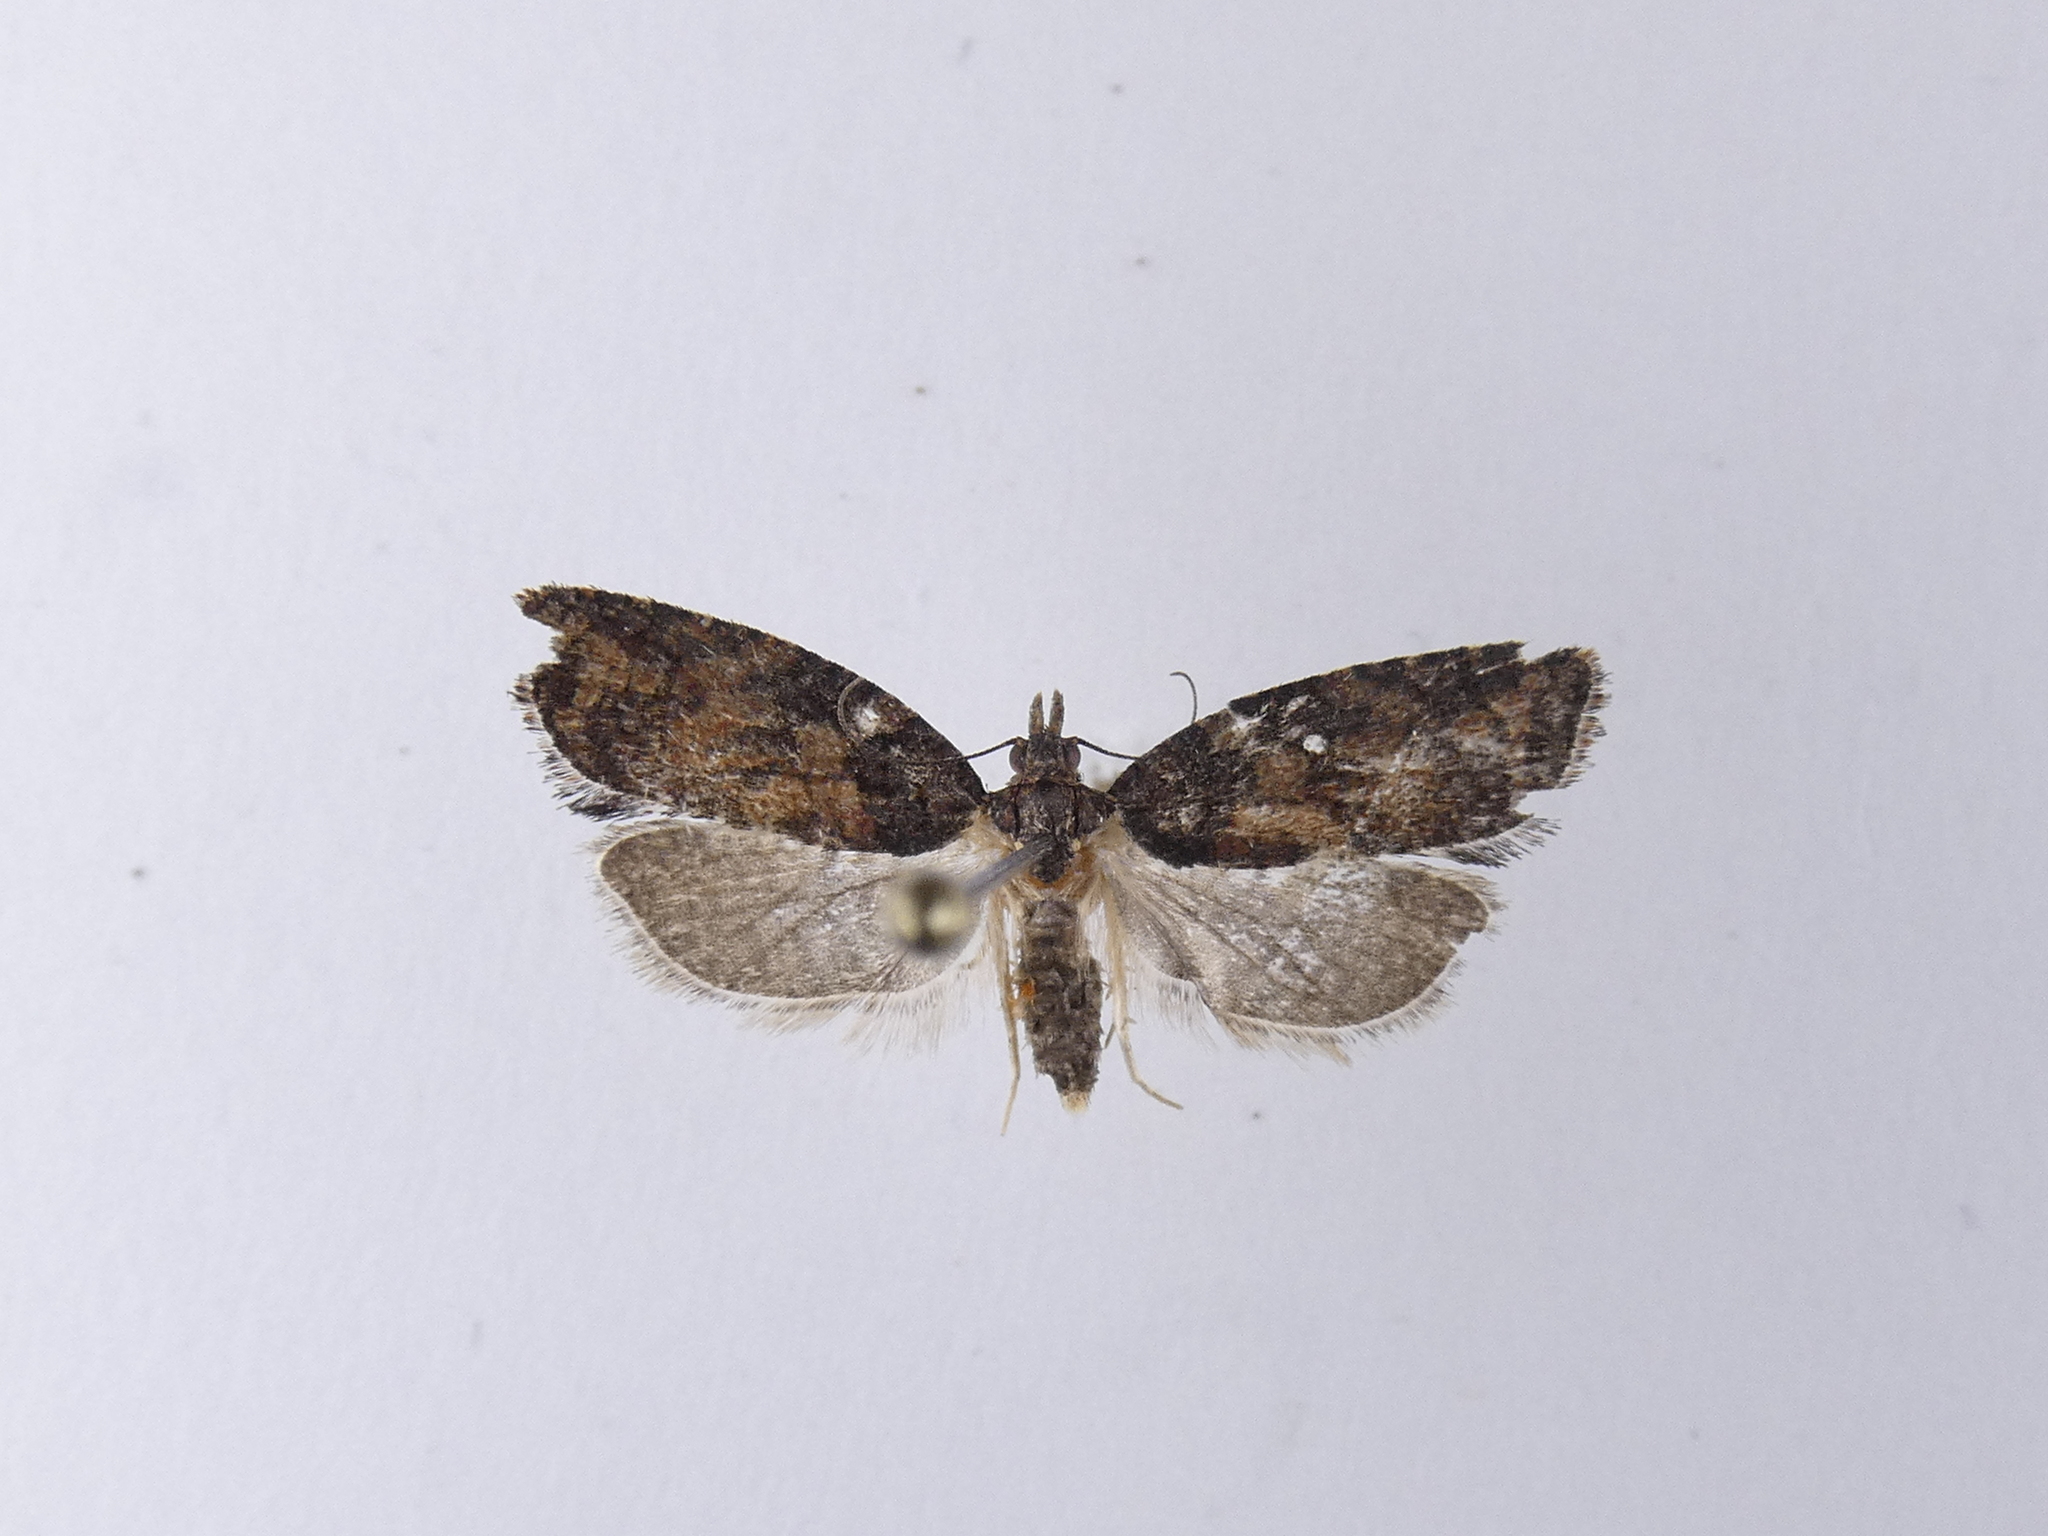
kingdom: Animalia
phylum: Arthropoda
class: Insecta
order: Lepidoptera
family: Tortricidae
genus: Capua
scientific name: Capua intractana
